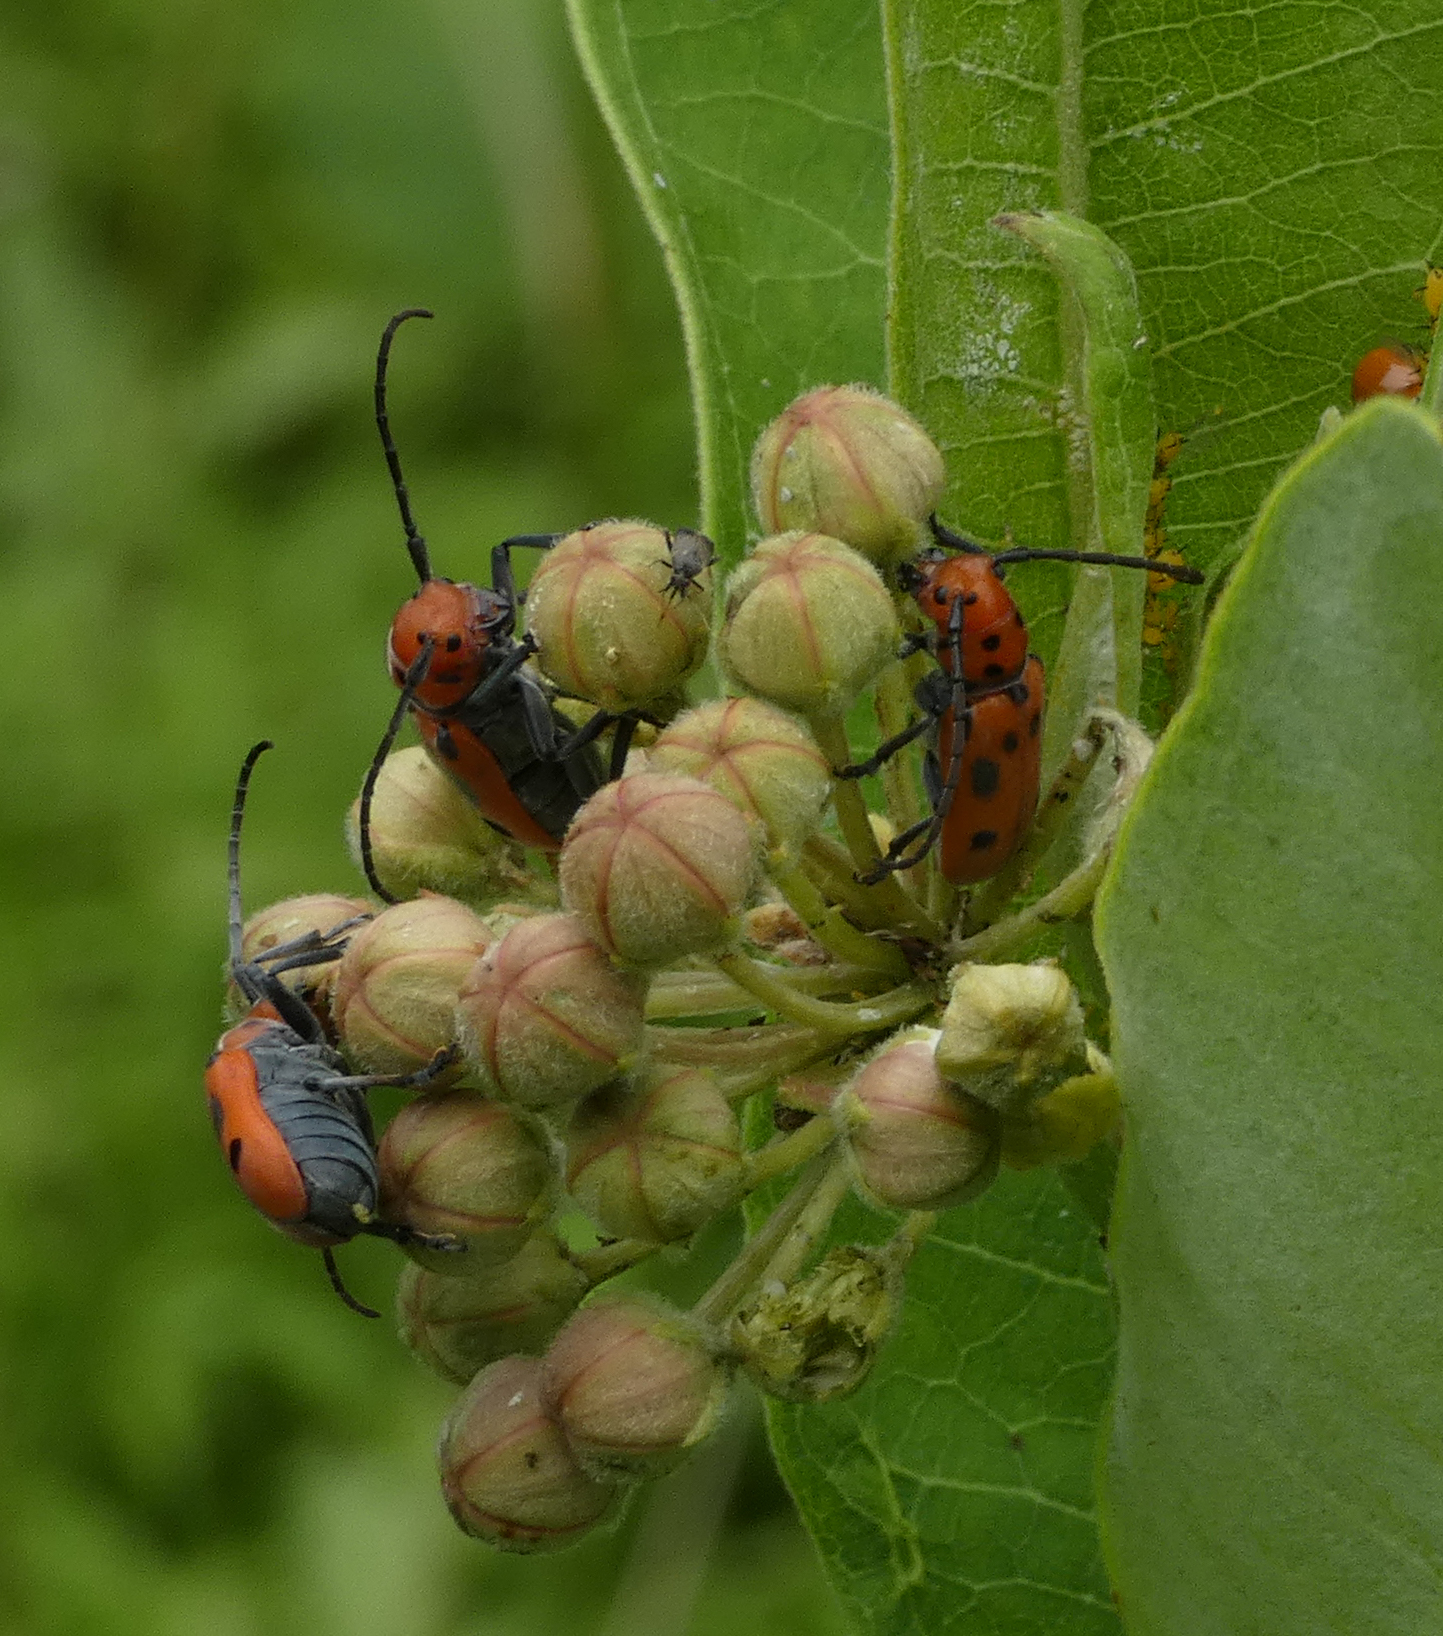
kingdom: Animalia
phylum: Arthropoda
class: Insecta
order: Coleoptera
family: Cerambycidae
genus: Tetraopes
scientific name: Tetraopes tetrophthalmus
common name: Red milkweed beetle
